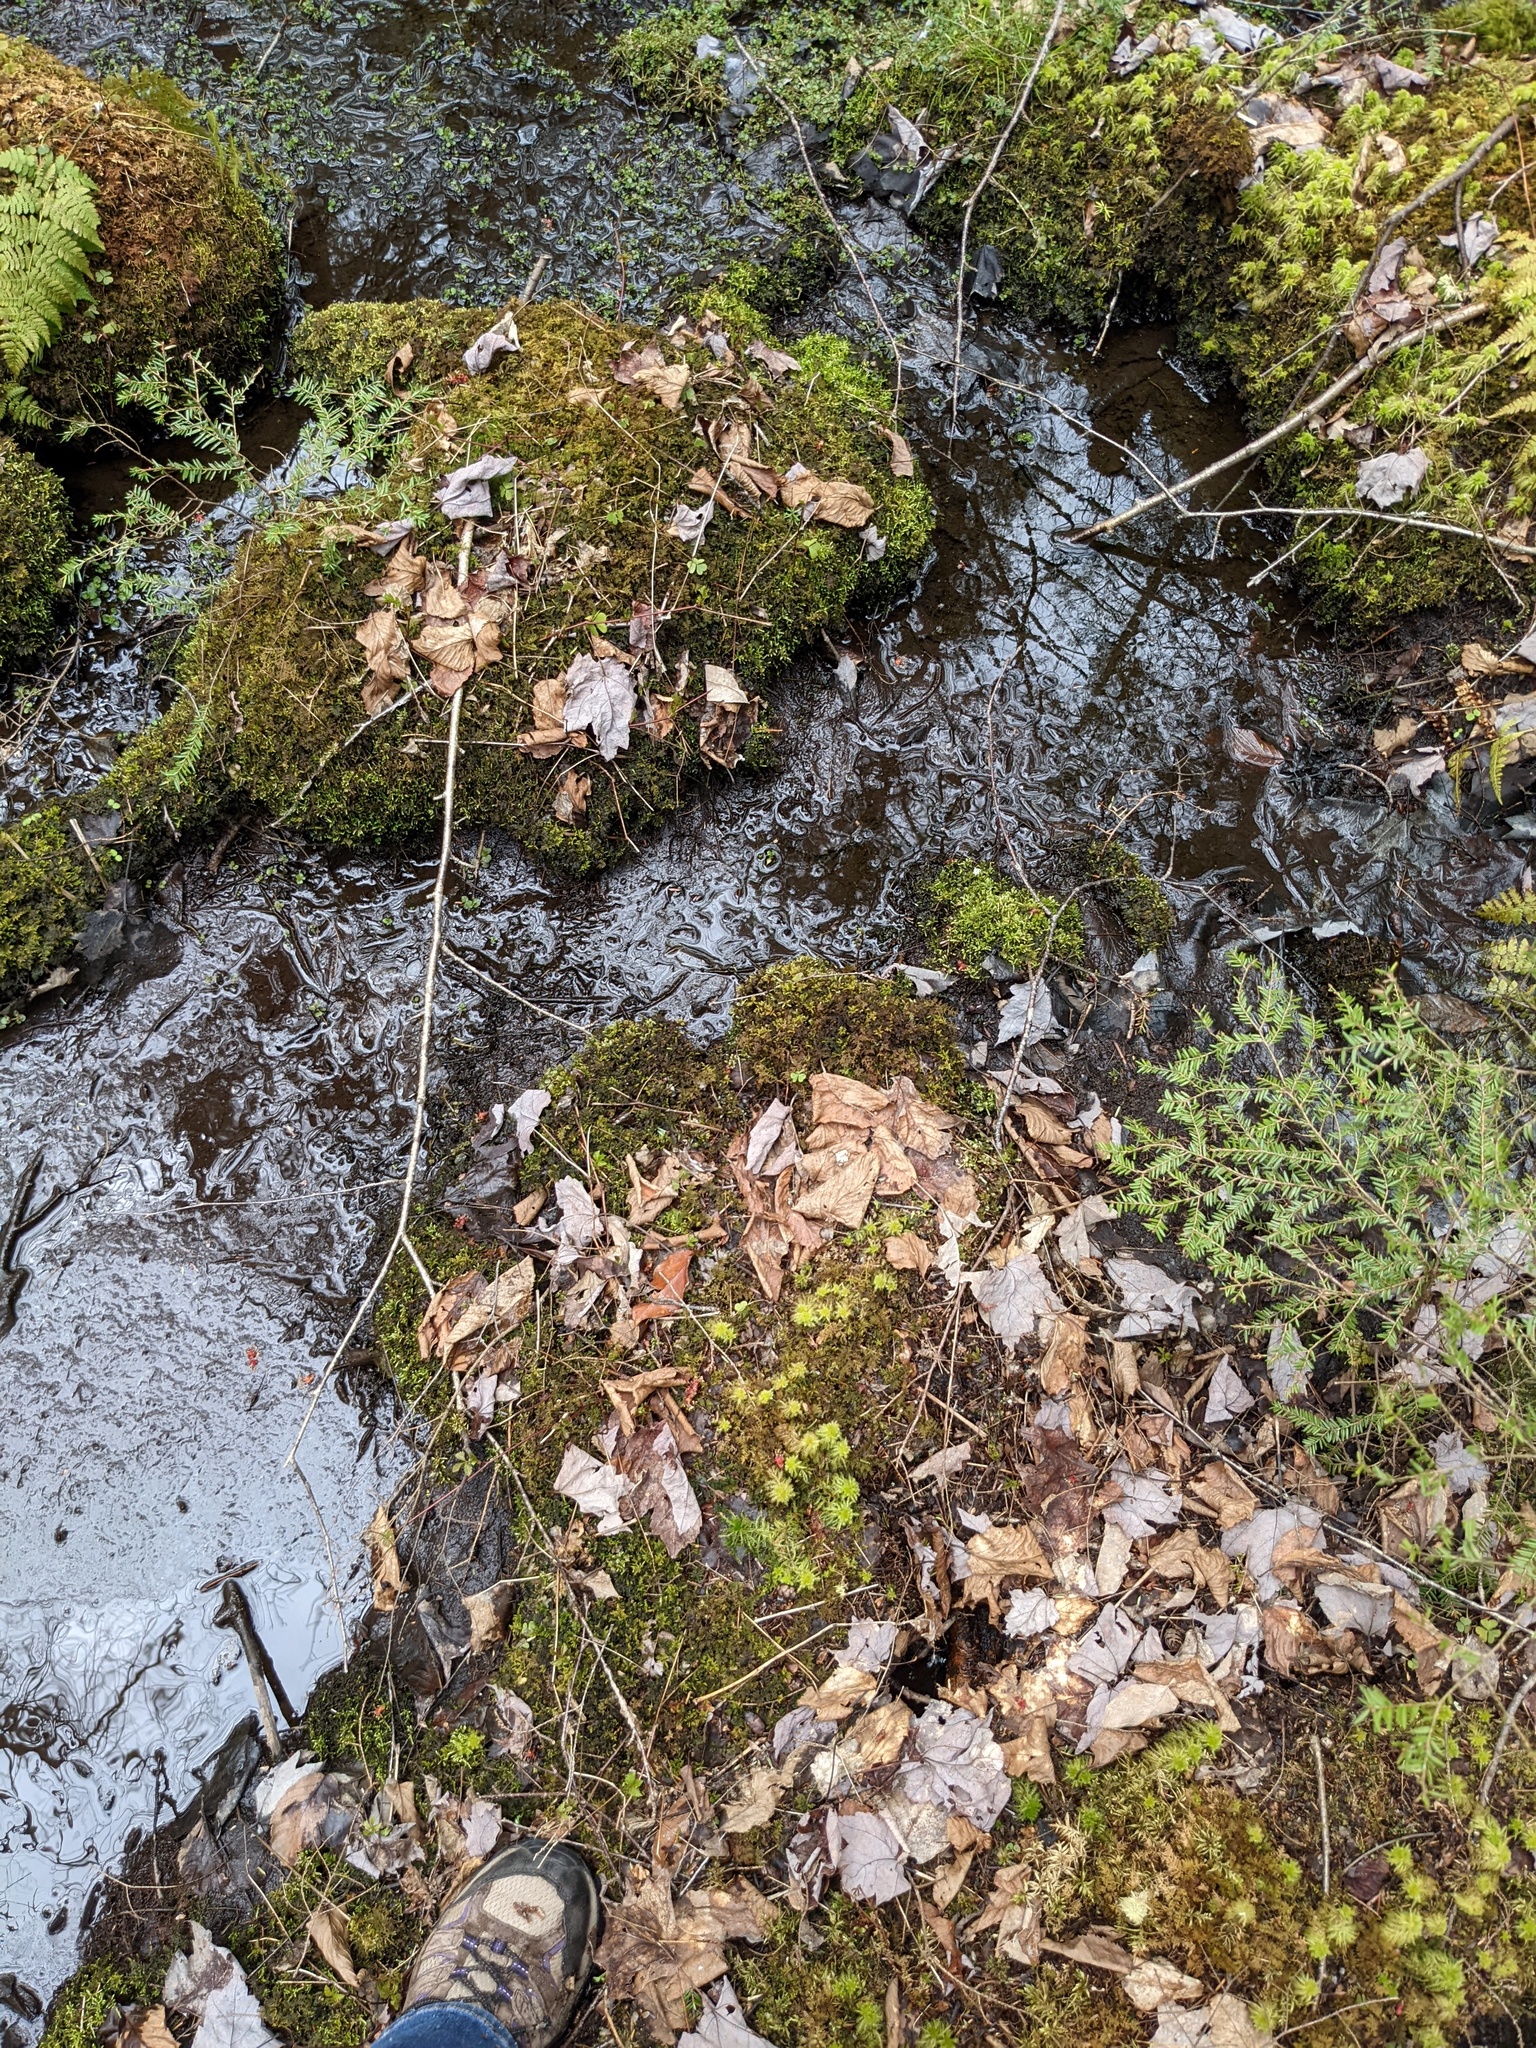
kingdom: Plantae
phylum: Bryophyta
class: Sphagnopsida
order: Sphagnales
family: Sphagnaceae
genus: Sphagnum
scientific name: Sphagnum squarrosum
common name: Shaggy peat moss
